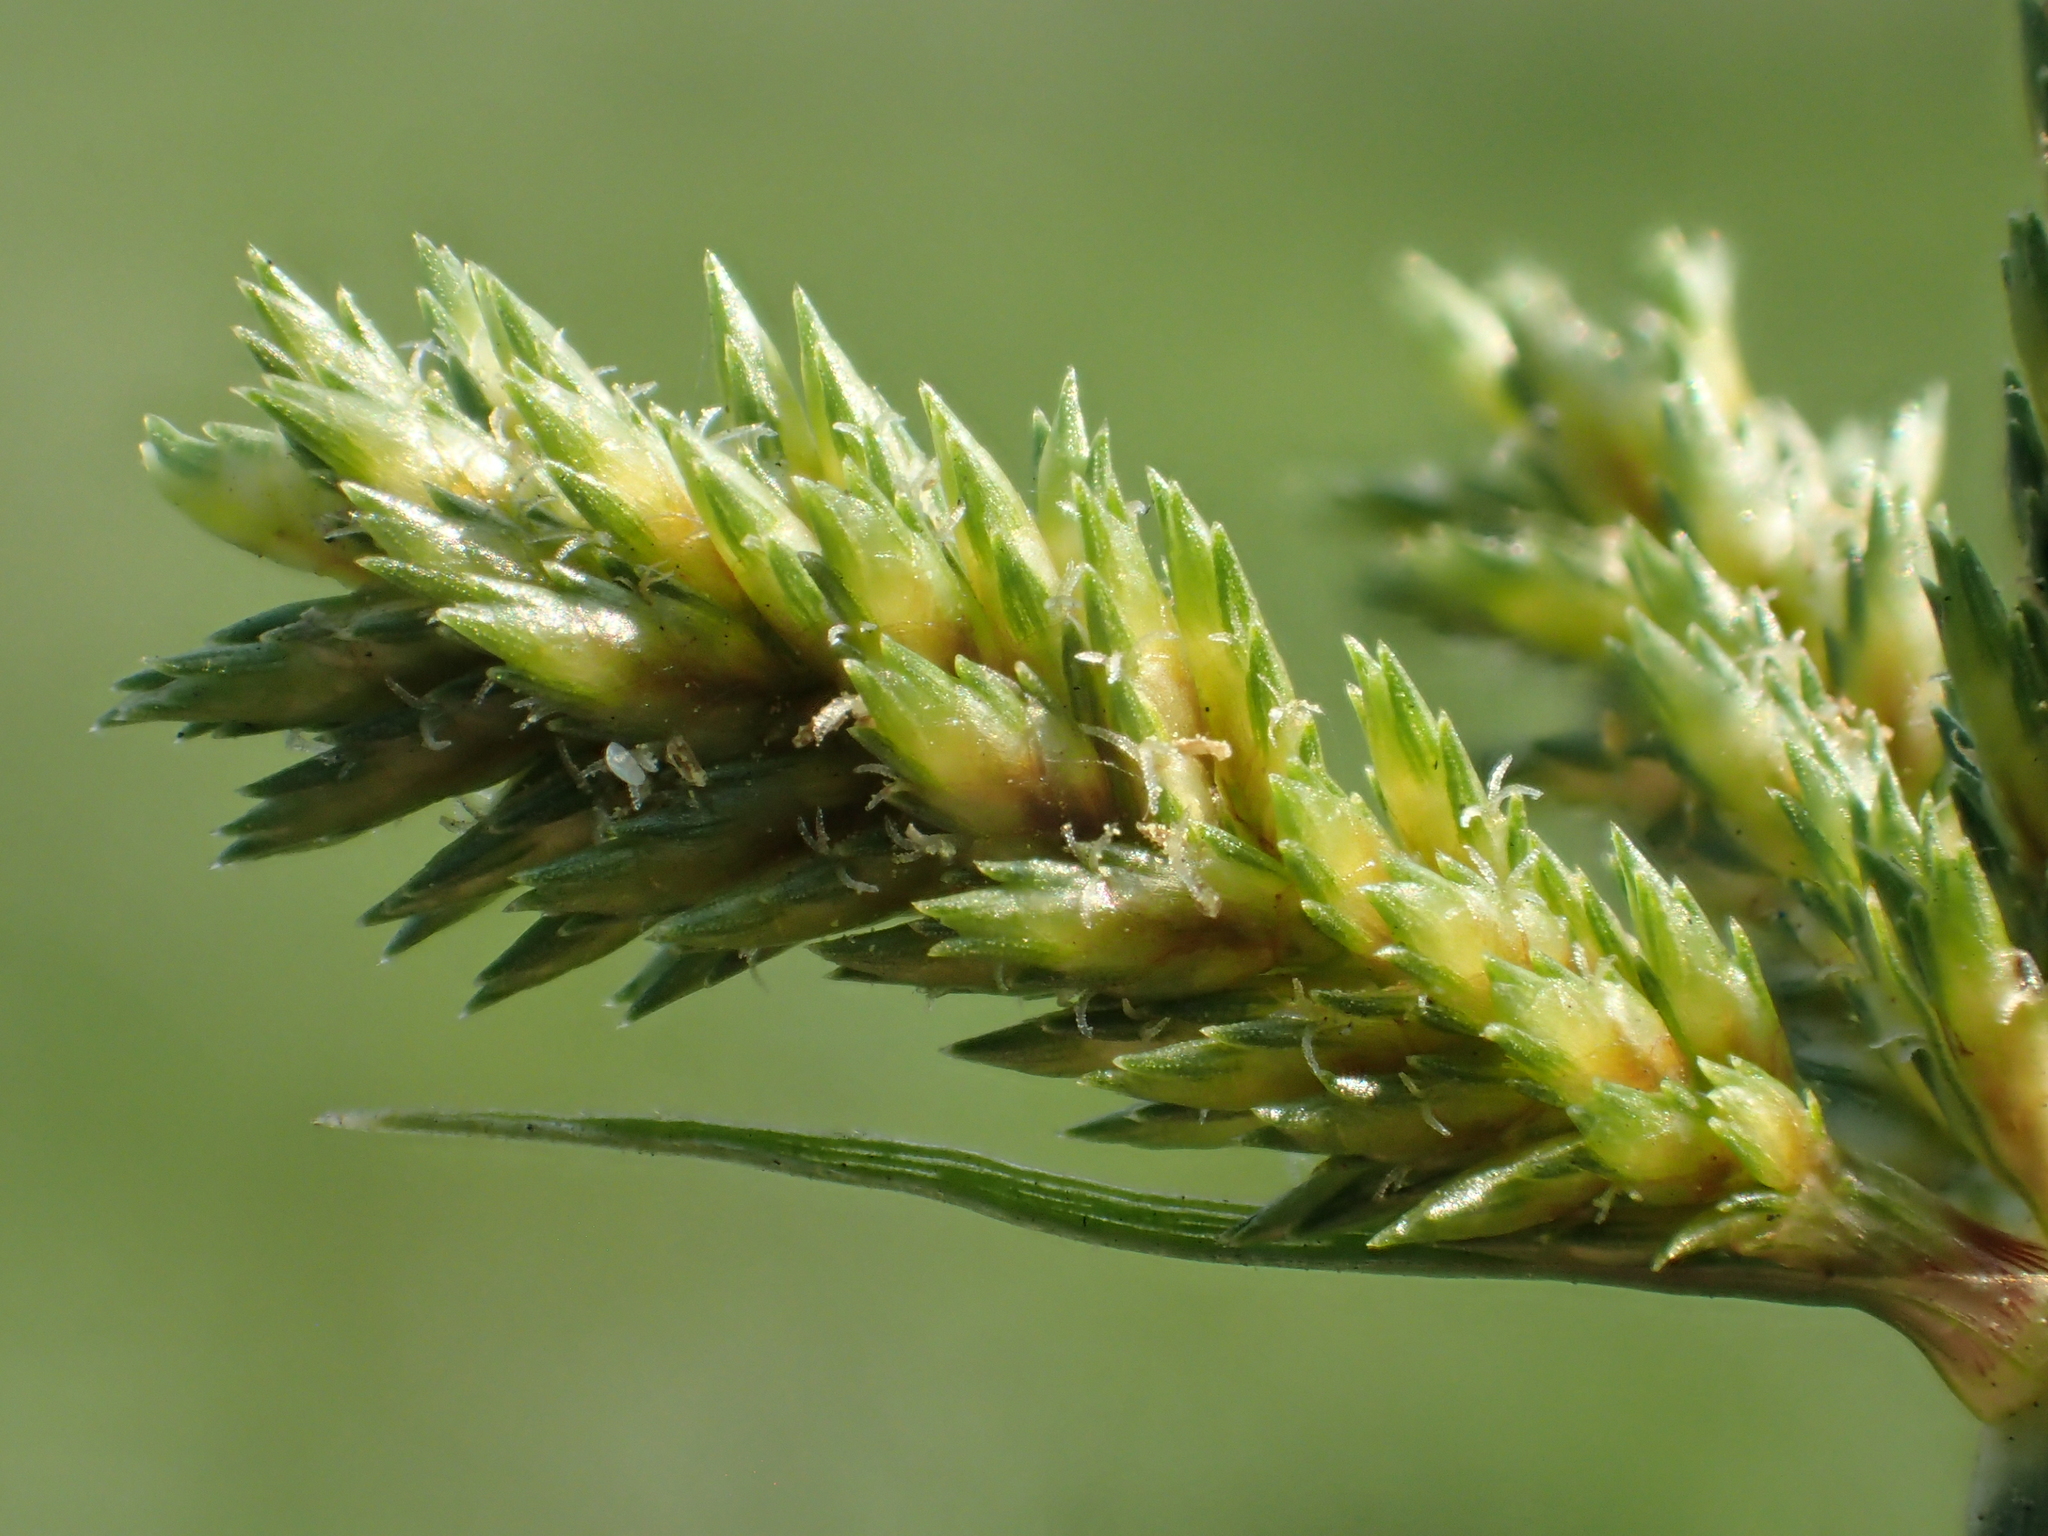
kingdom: Plantae
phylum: Tracheophyta
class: Liliopsida
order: Poales
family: Cyperaceae
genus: Cyperus
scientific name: Cyperus imbricatus
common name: Shingle flatsedge
